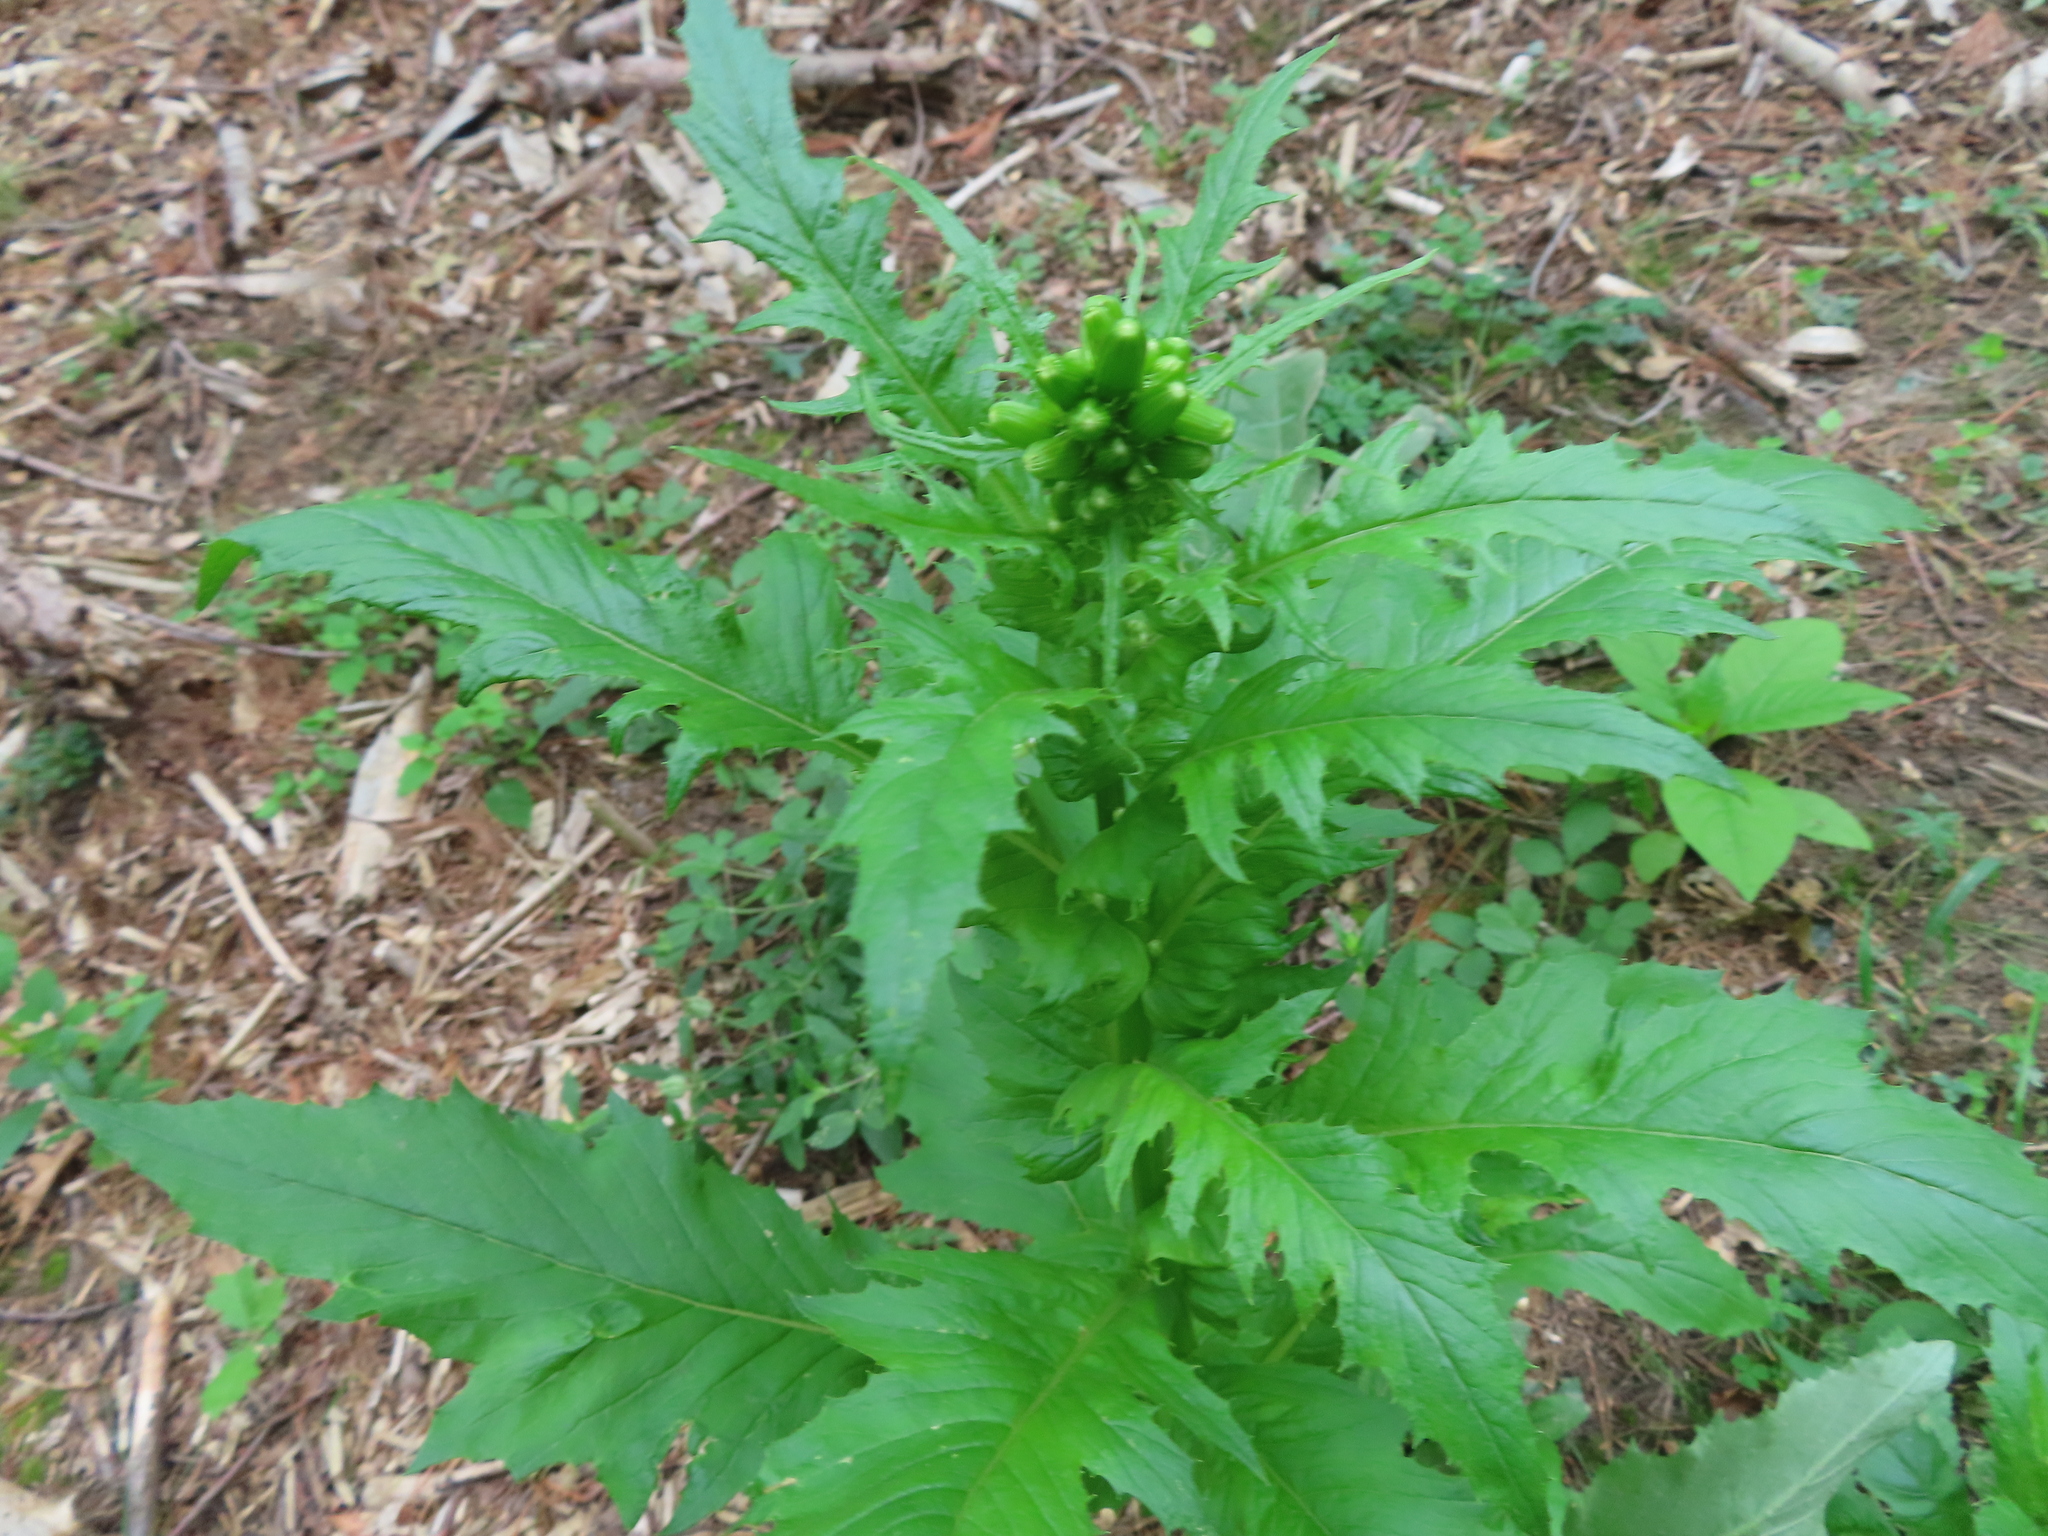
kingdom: Plantae
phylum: Tracheophyta
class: Magnoliopsida
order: Asterales
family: Asteraceae
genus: Erechtites
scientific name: Erechtites hieraciifolius
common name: American burnweed
